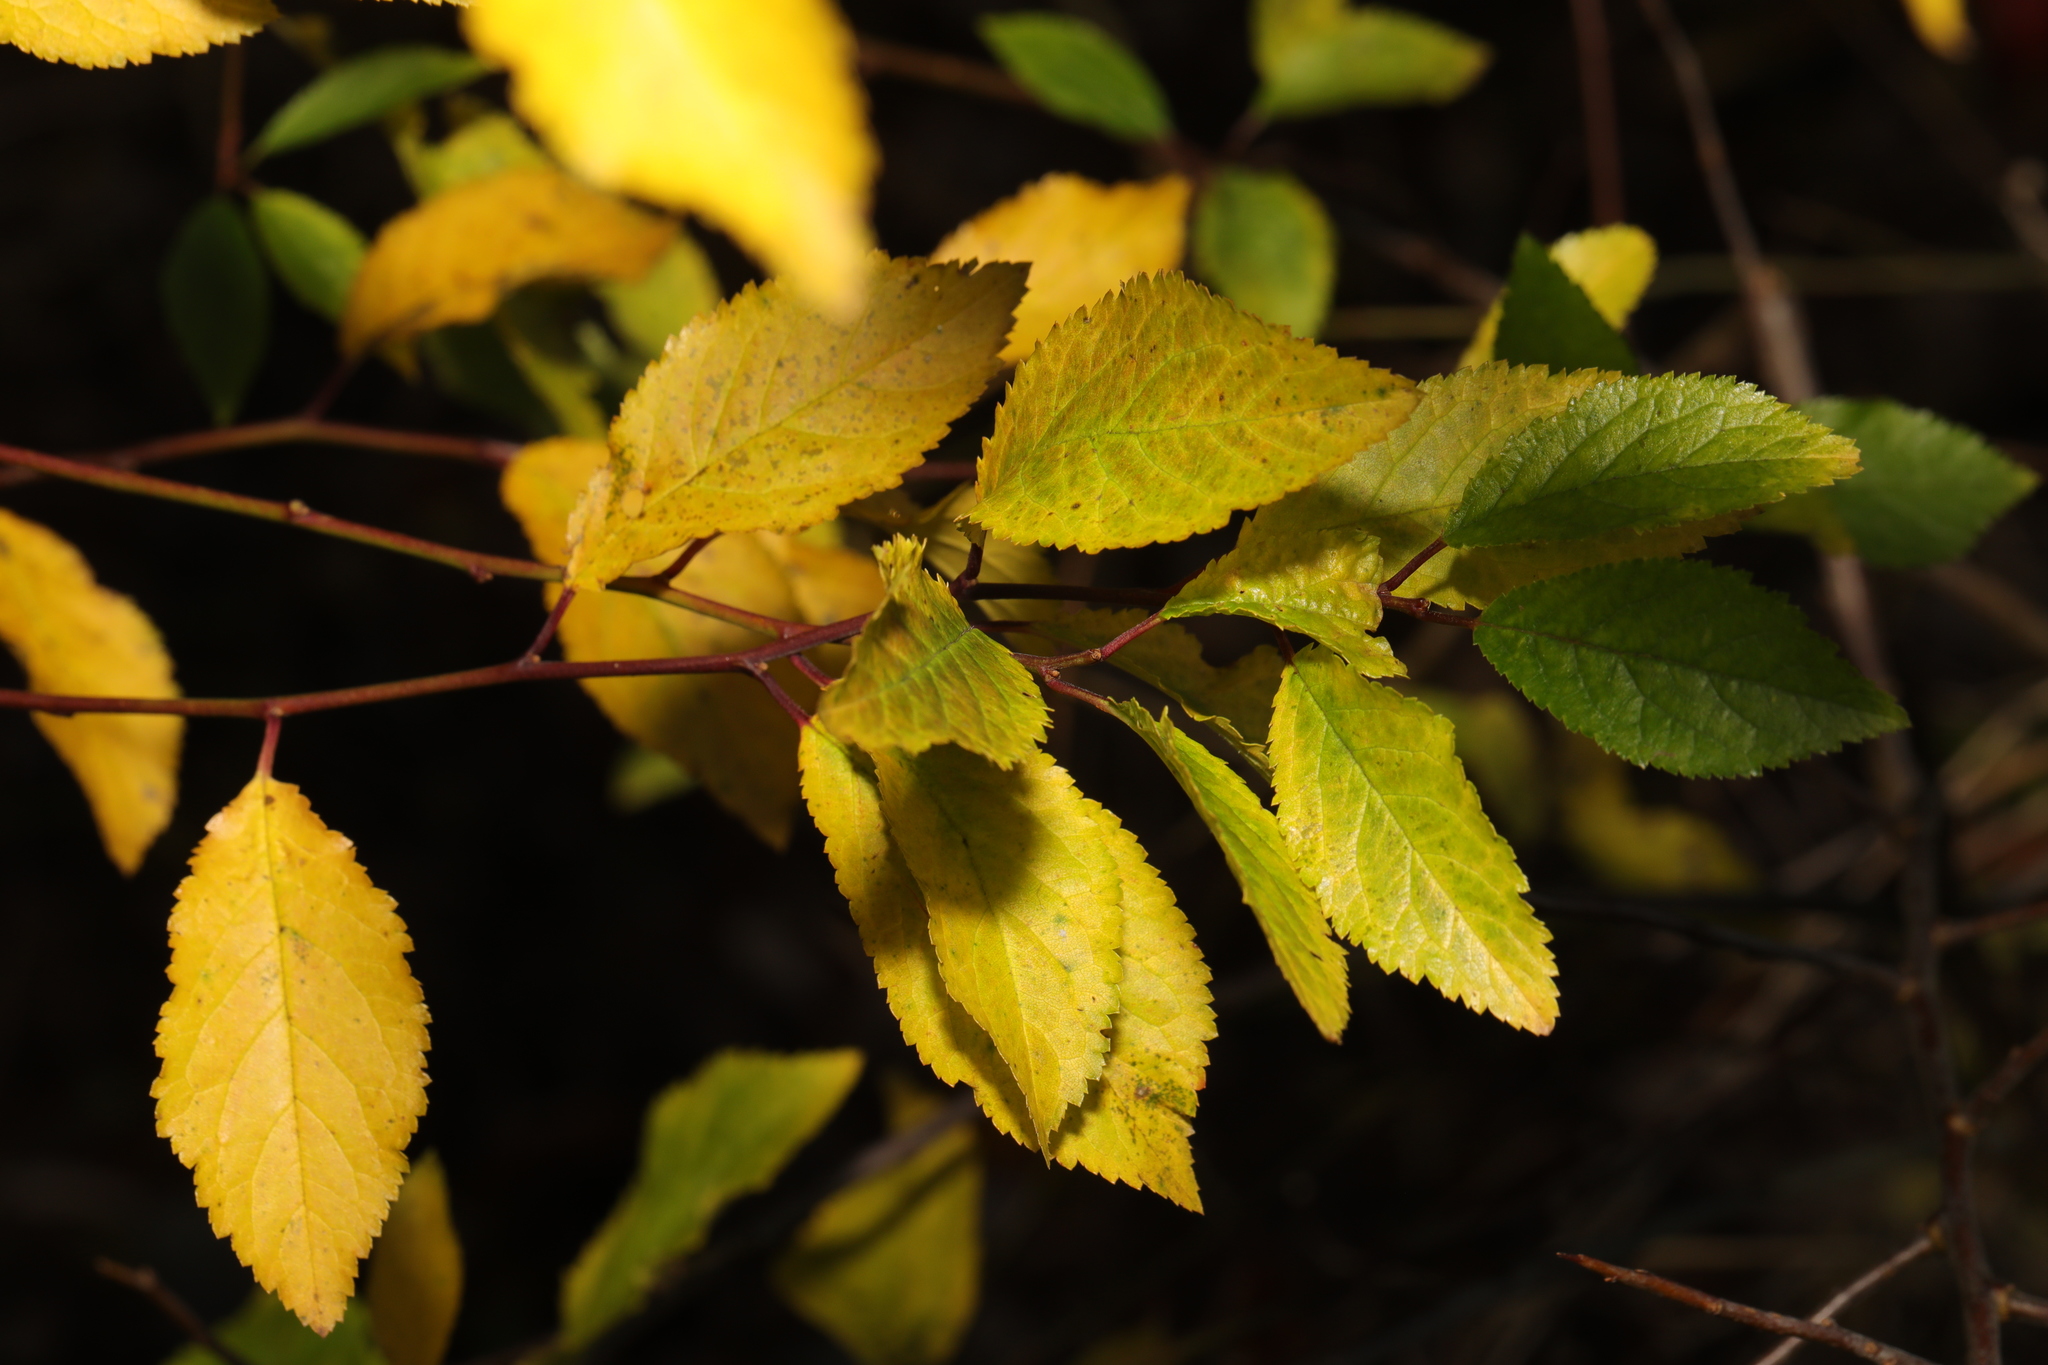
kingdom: Plantae
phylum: Tracheophyta
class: Magnoliopsida
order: Rosales
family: Rosaceae
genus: Prunus
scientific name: Prunus spinosa
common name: Blackthorn
